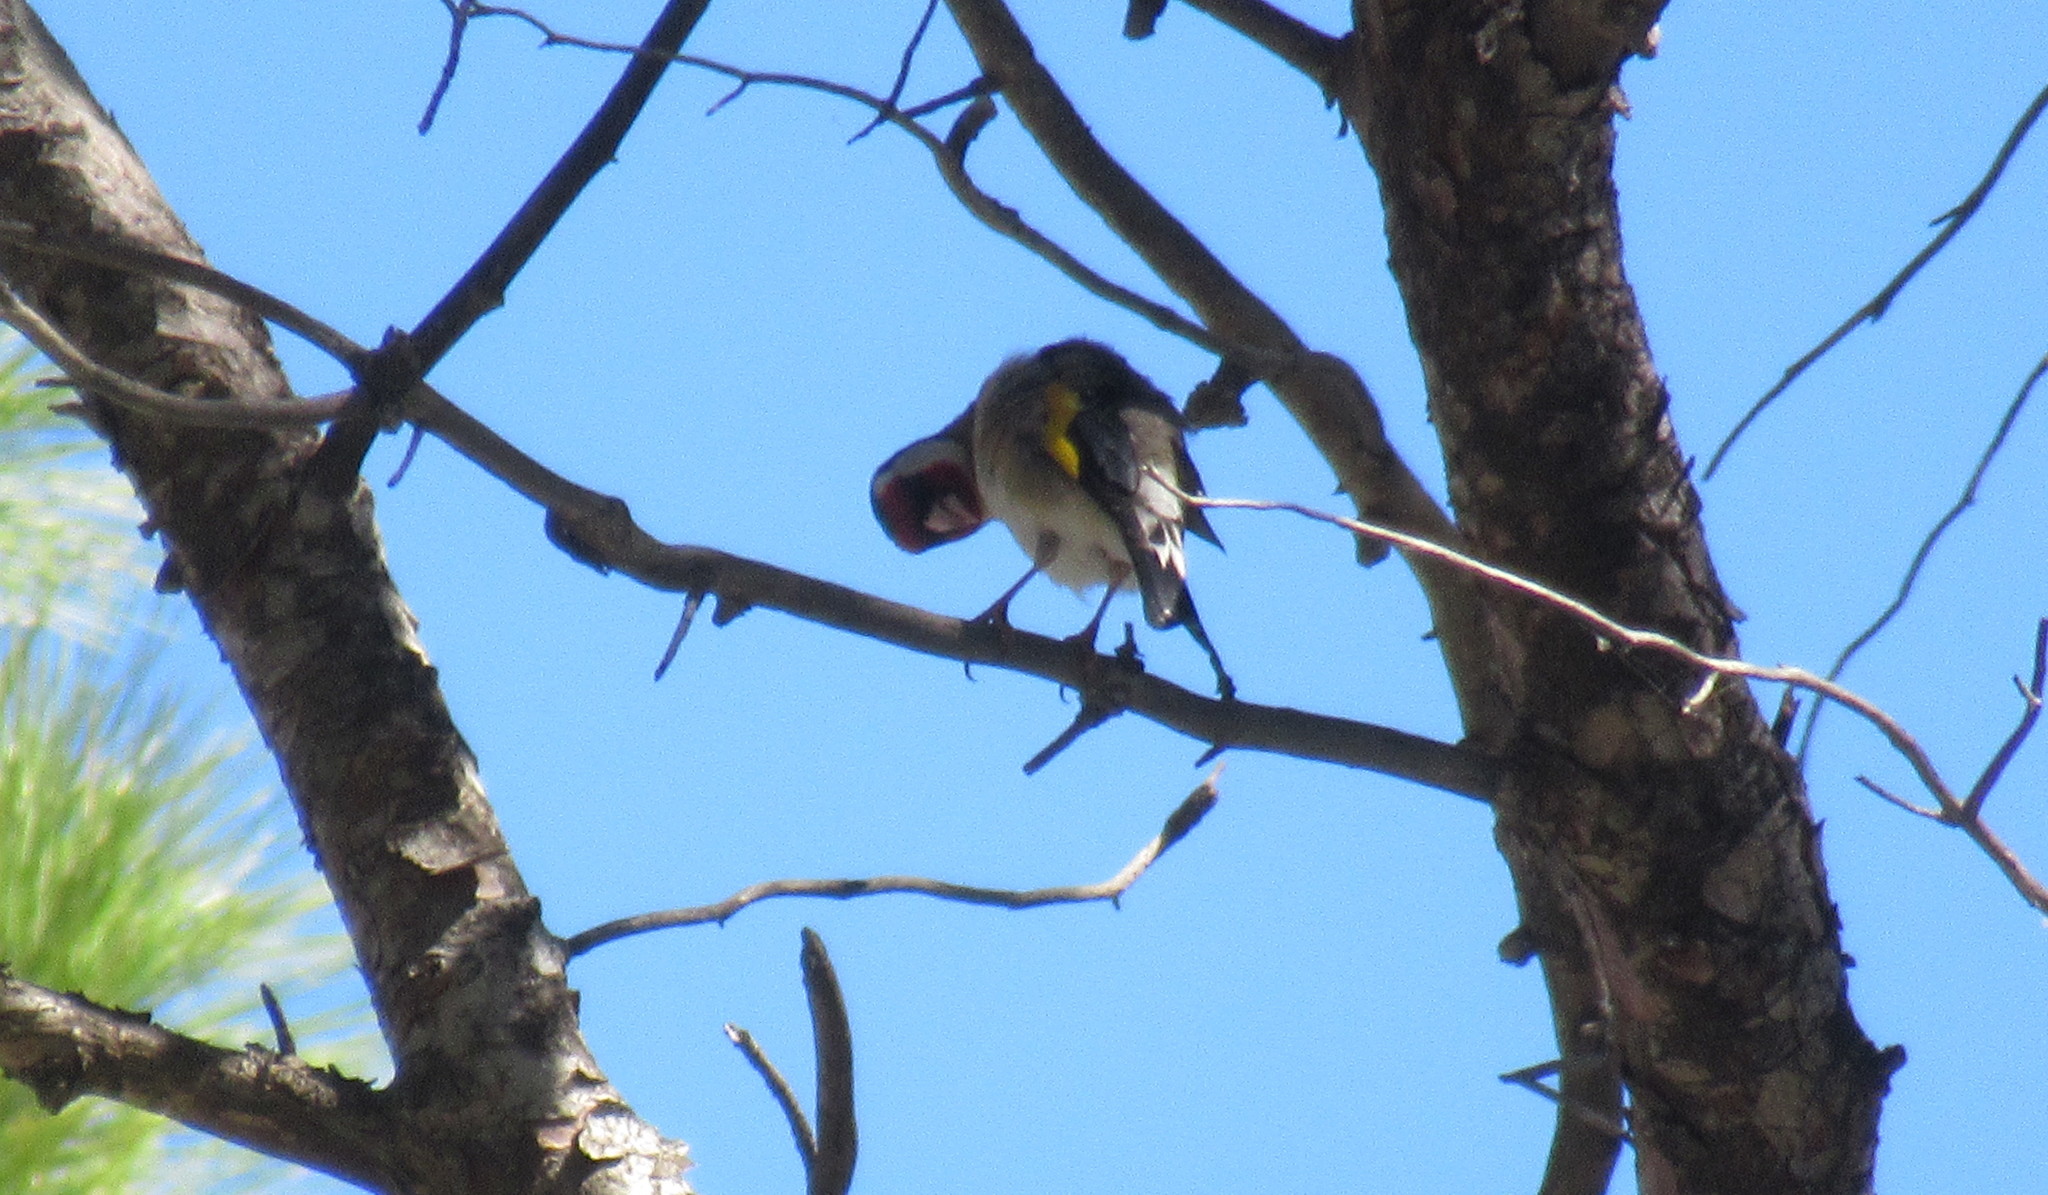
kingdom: Animalia
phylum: Chordata
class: Aves
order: Passeriformes
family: Fringillidae
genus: Carduelis
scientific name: Carduelis carduelis
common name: European goldfinch
